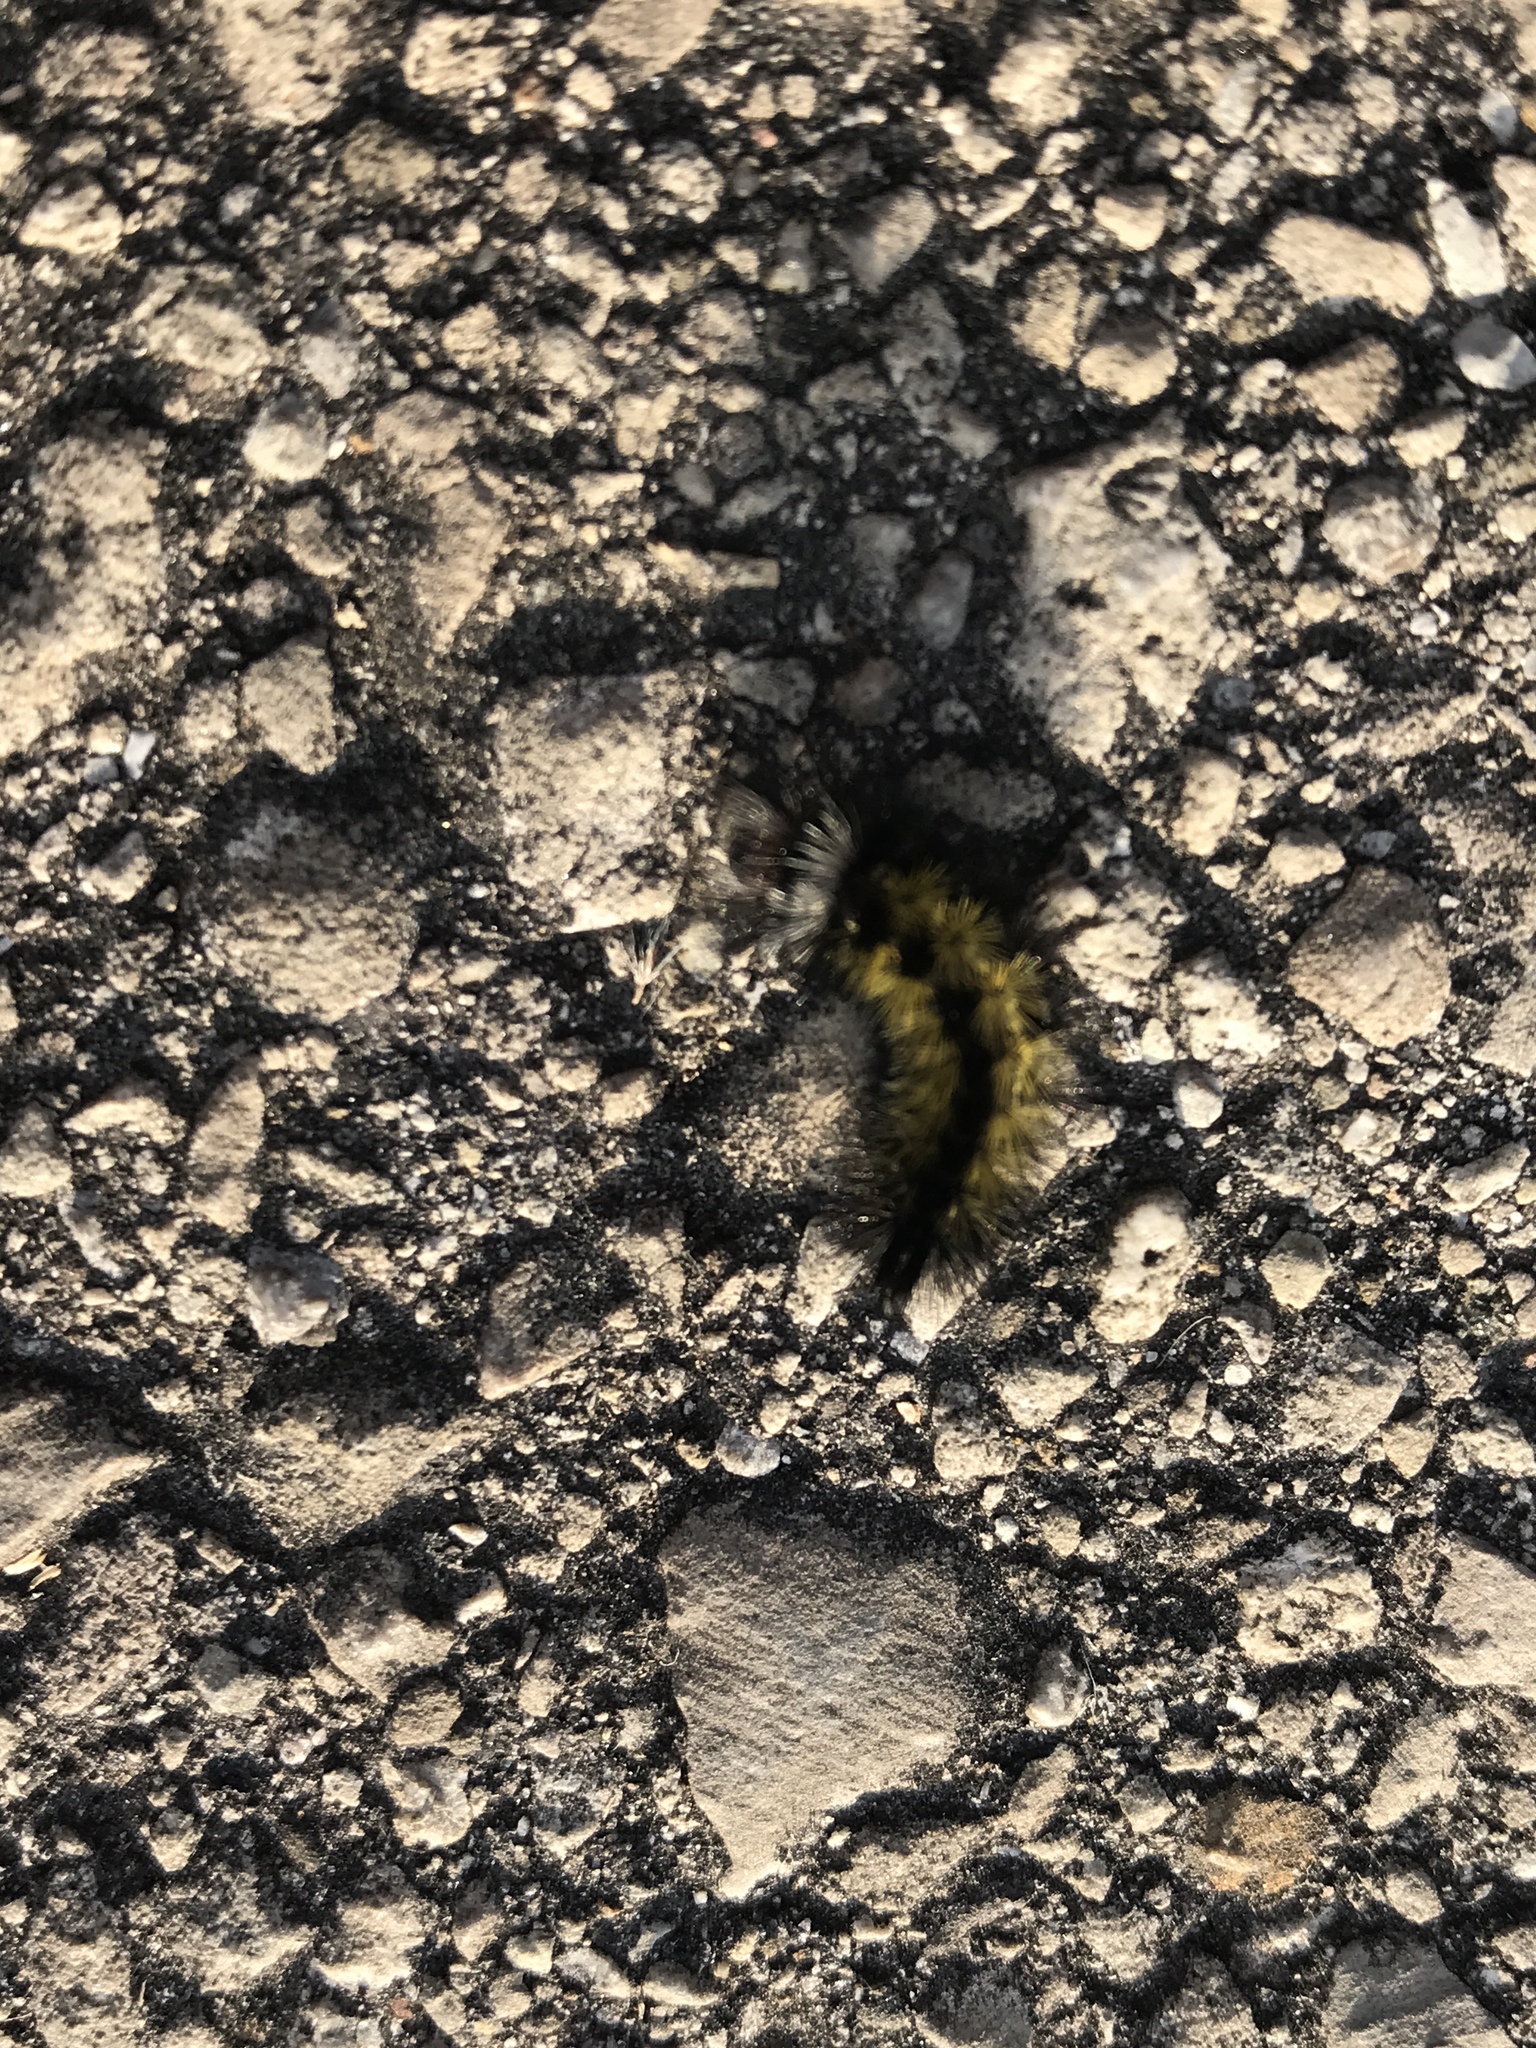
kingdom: Animalia
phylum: Arthropoda
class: Insecta
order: Lepidoptera
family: Erebidae
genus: Ctenucha
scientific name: Ctenucha virginica
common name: Virginia ctenucha moth
